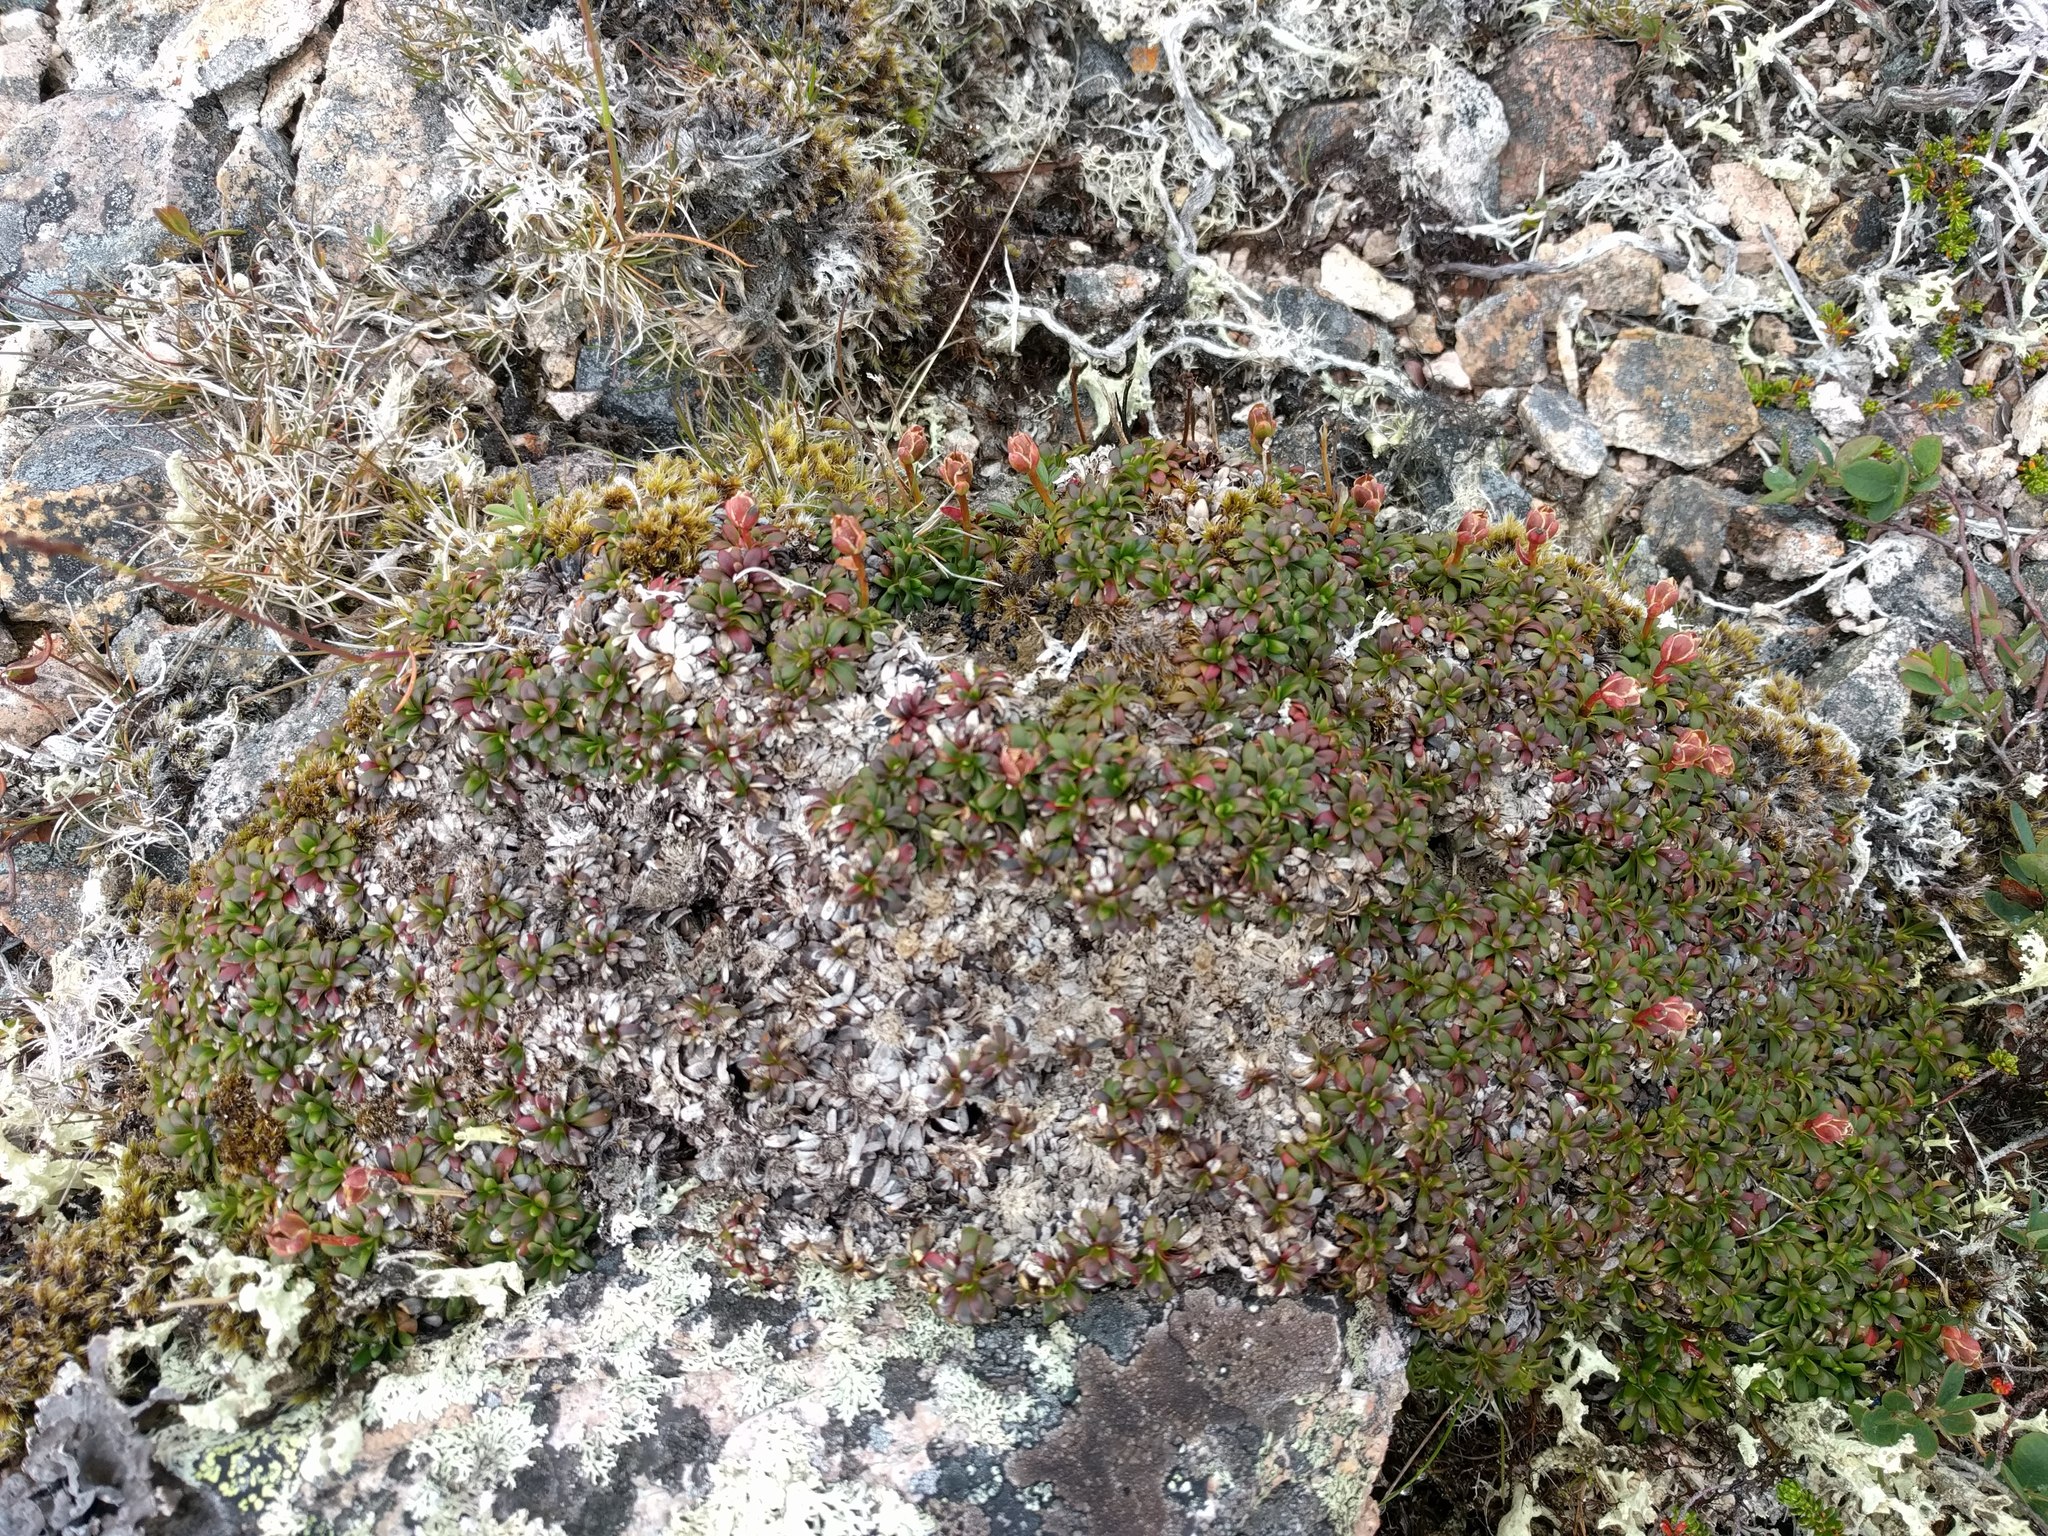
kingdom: Plantae
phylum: Tracheophyta
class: Magnoliopsida
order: Ericales
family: Diapensiaceae
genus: Diapensia
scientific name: Diapensia lapponica
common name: Diapensia
